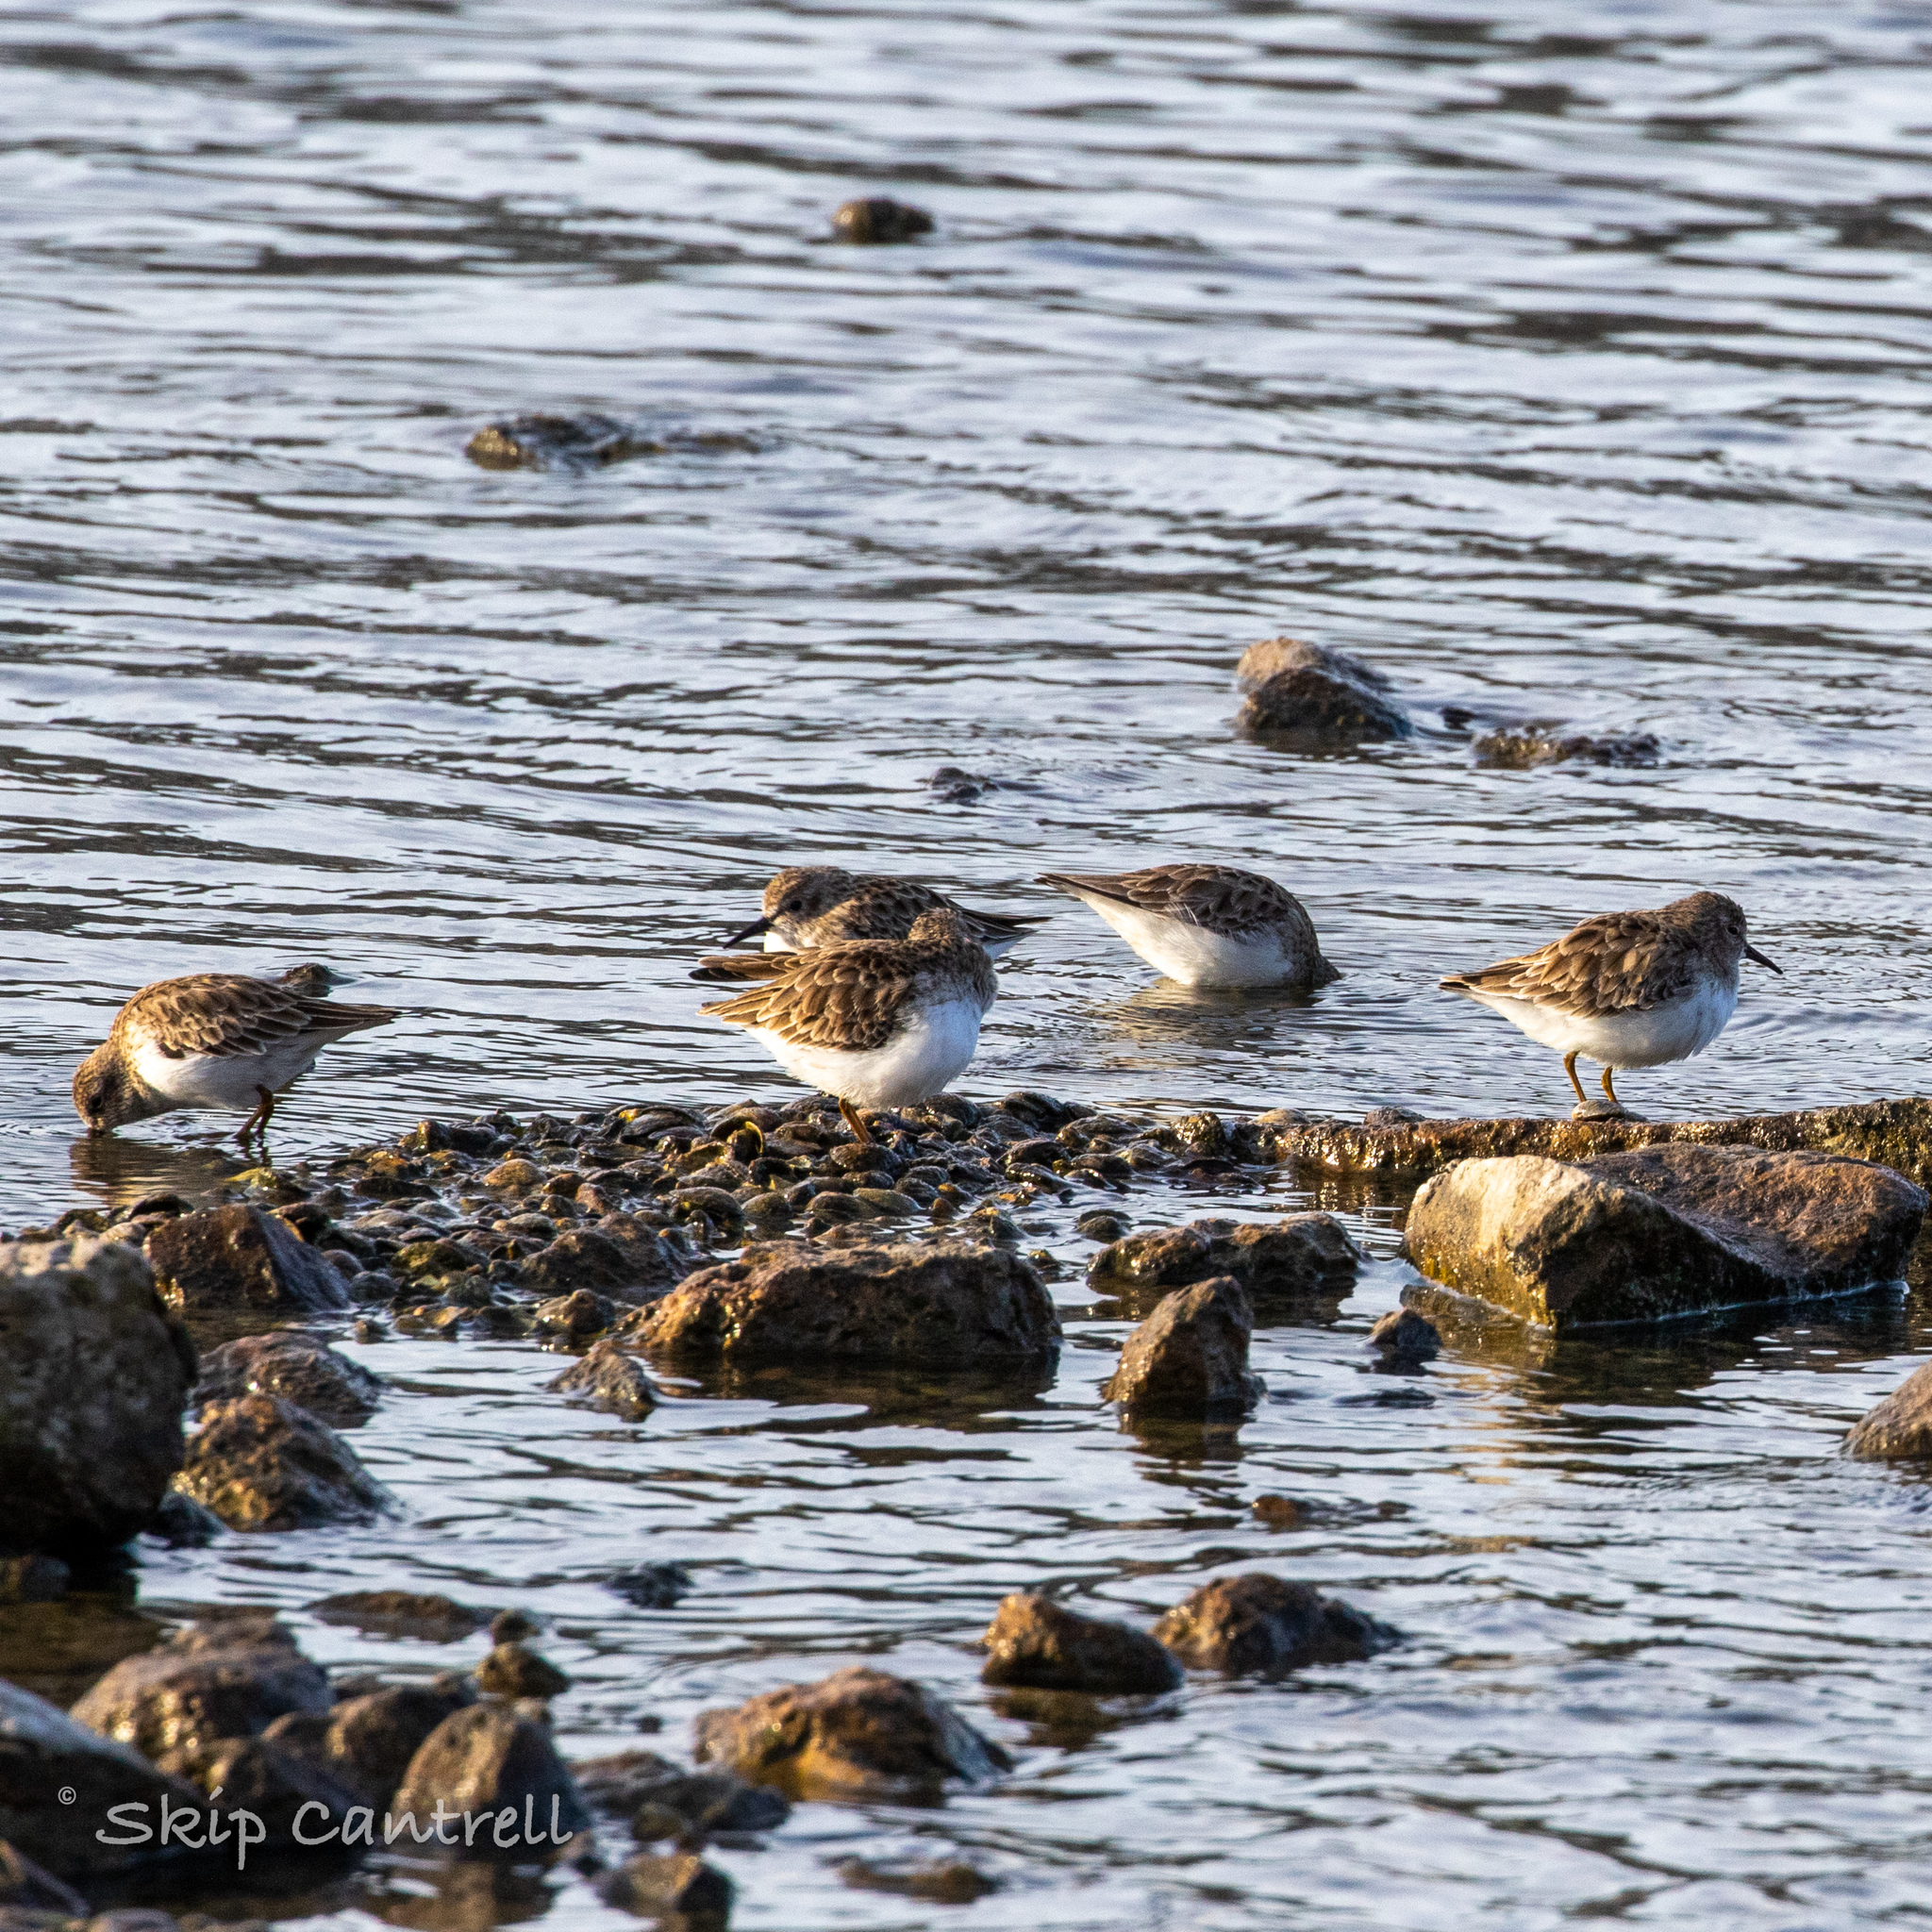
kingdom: Animalia
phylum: Chordata
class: Aves
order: Charadriiformes
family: Scolopacidae
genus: Calidris
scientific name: Calidris minutilla
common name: Least sandpiper
